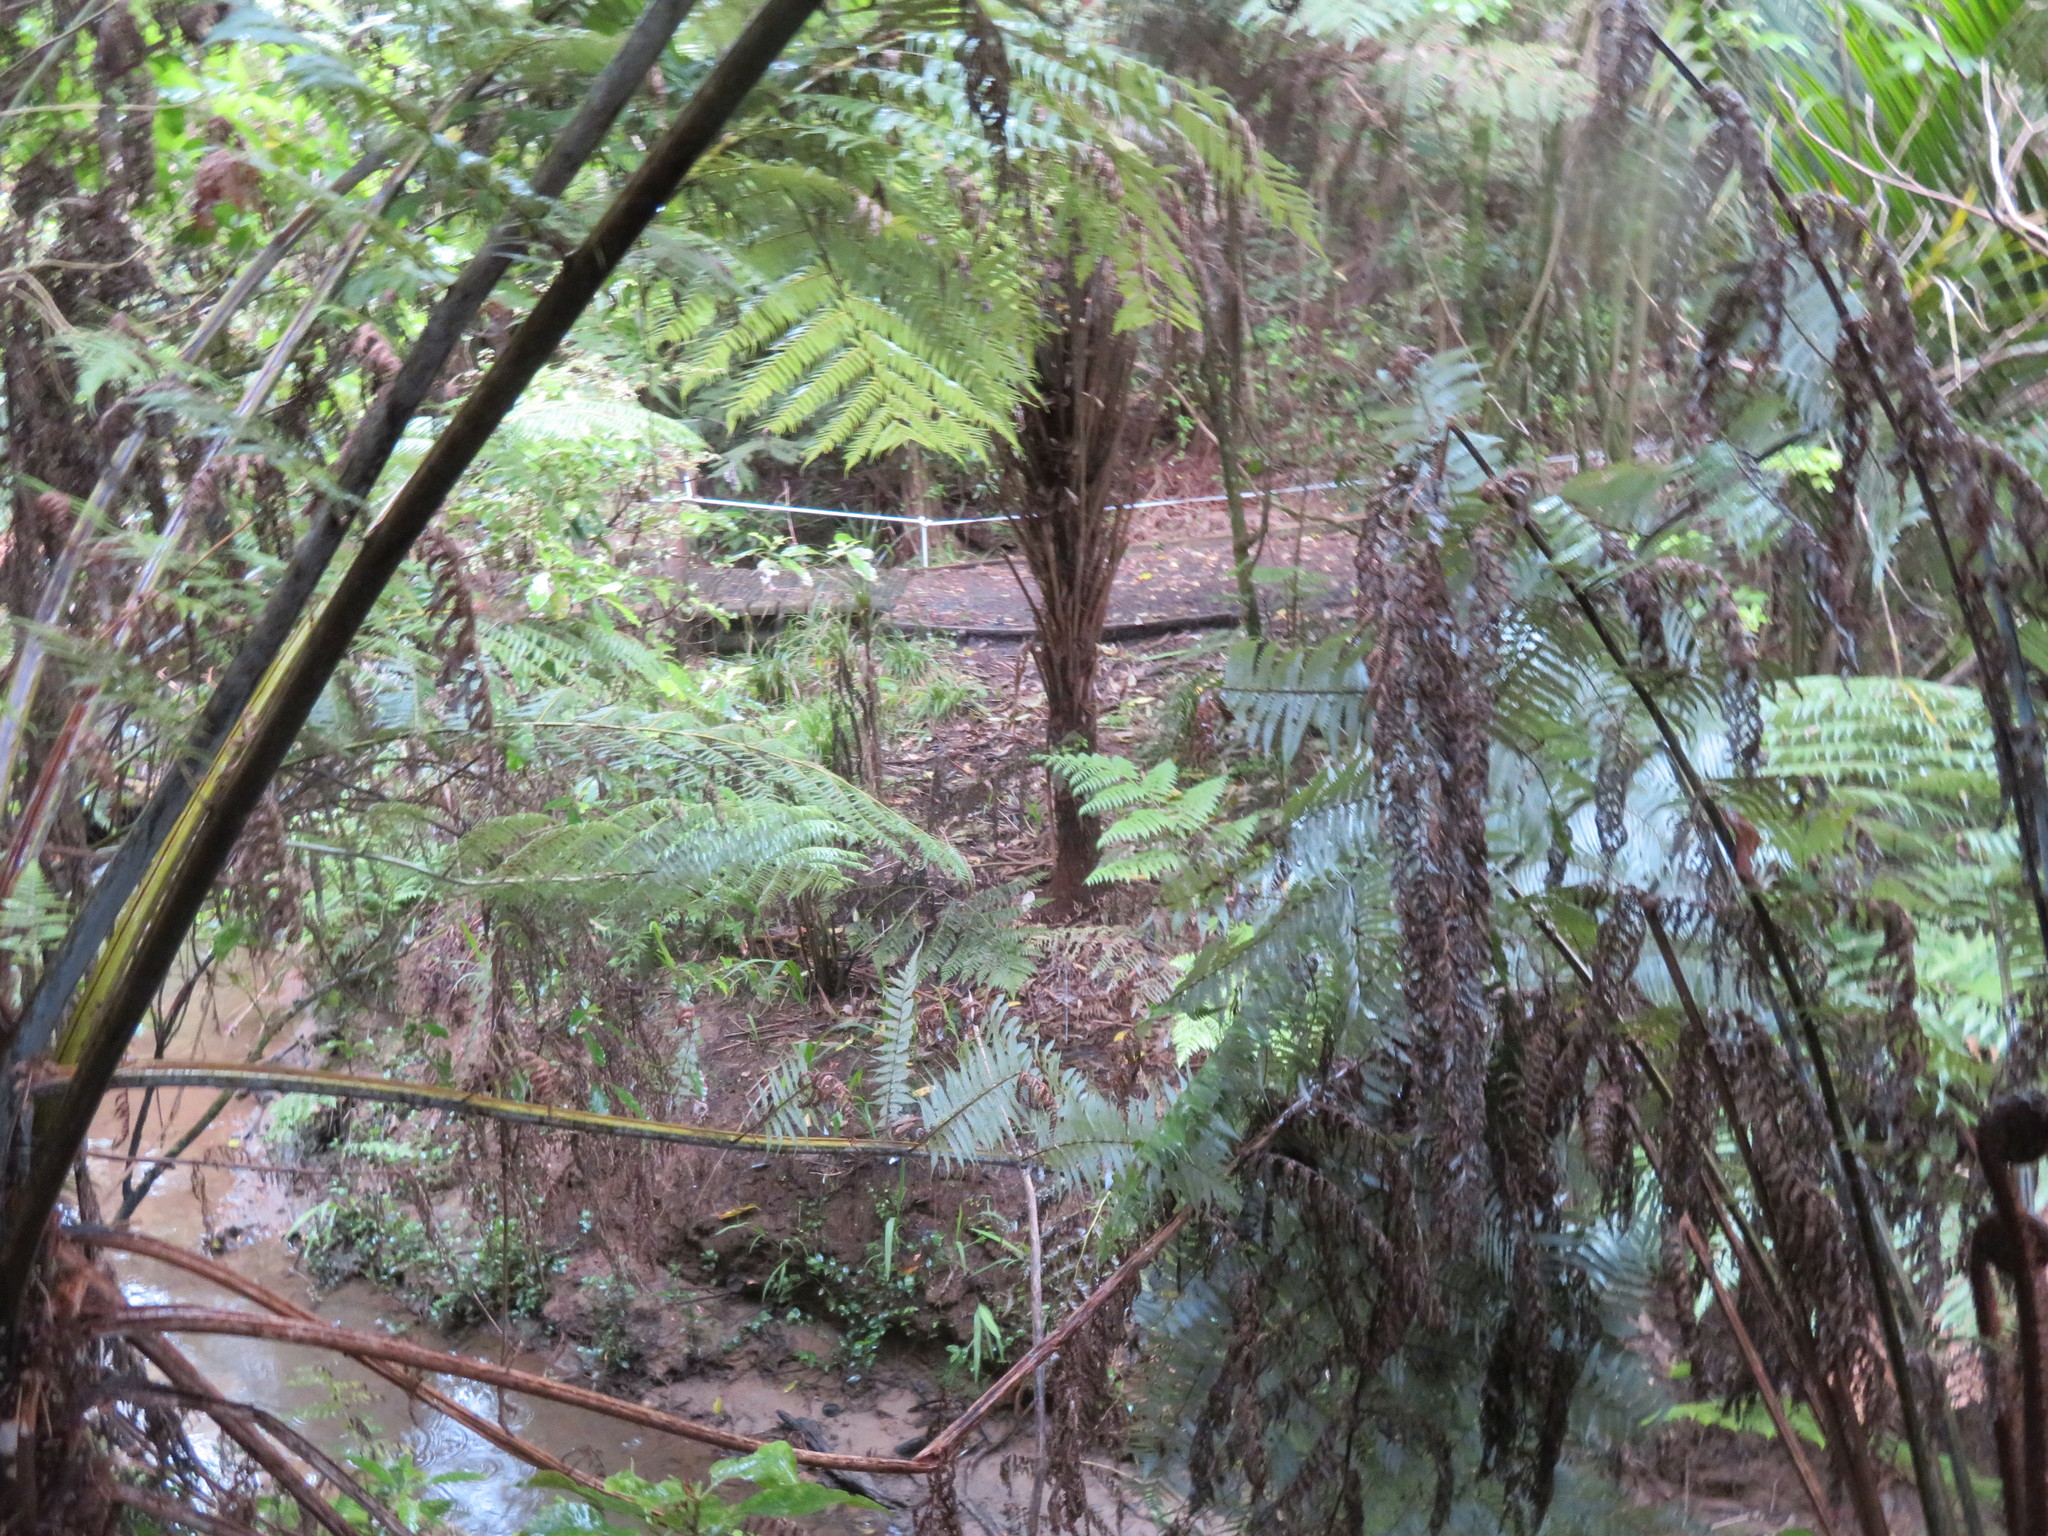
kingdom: Plantae
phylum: Tracheophyta
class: Liliopsida
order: Commelinales
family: Commelinaceae
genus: Tradescantia
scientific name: Tradescantia fluminensis
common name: Wandering-jew
